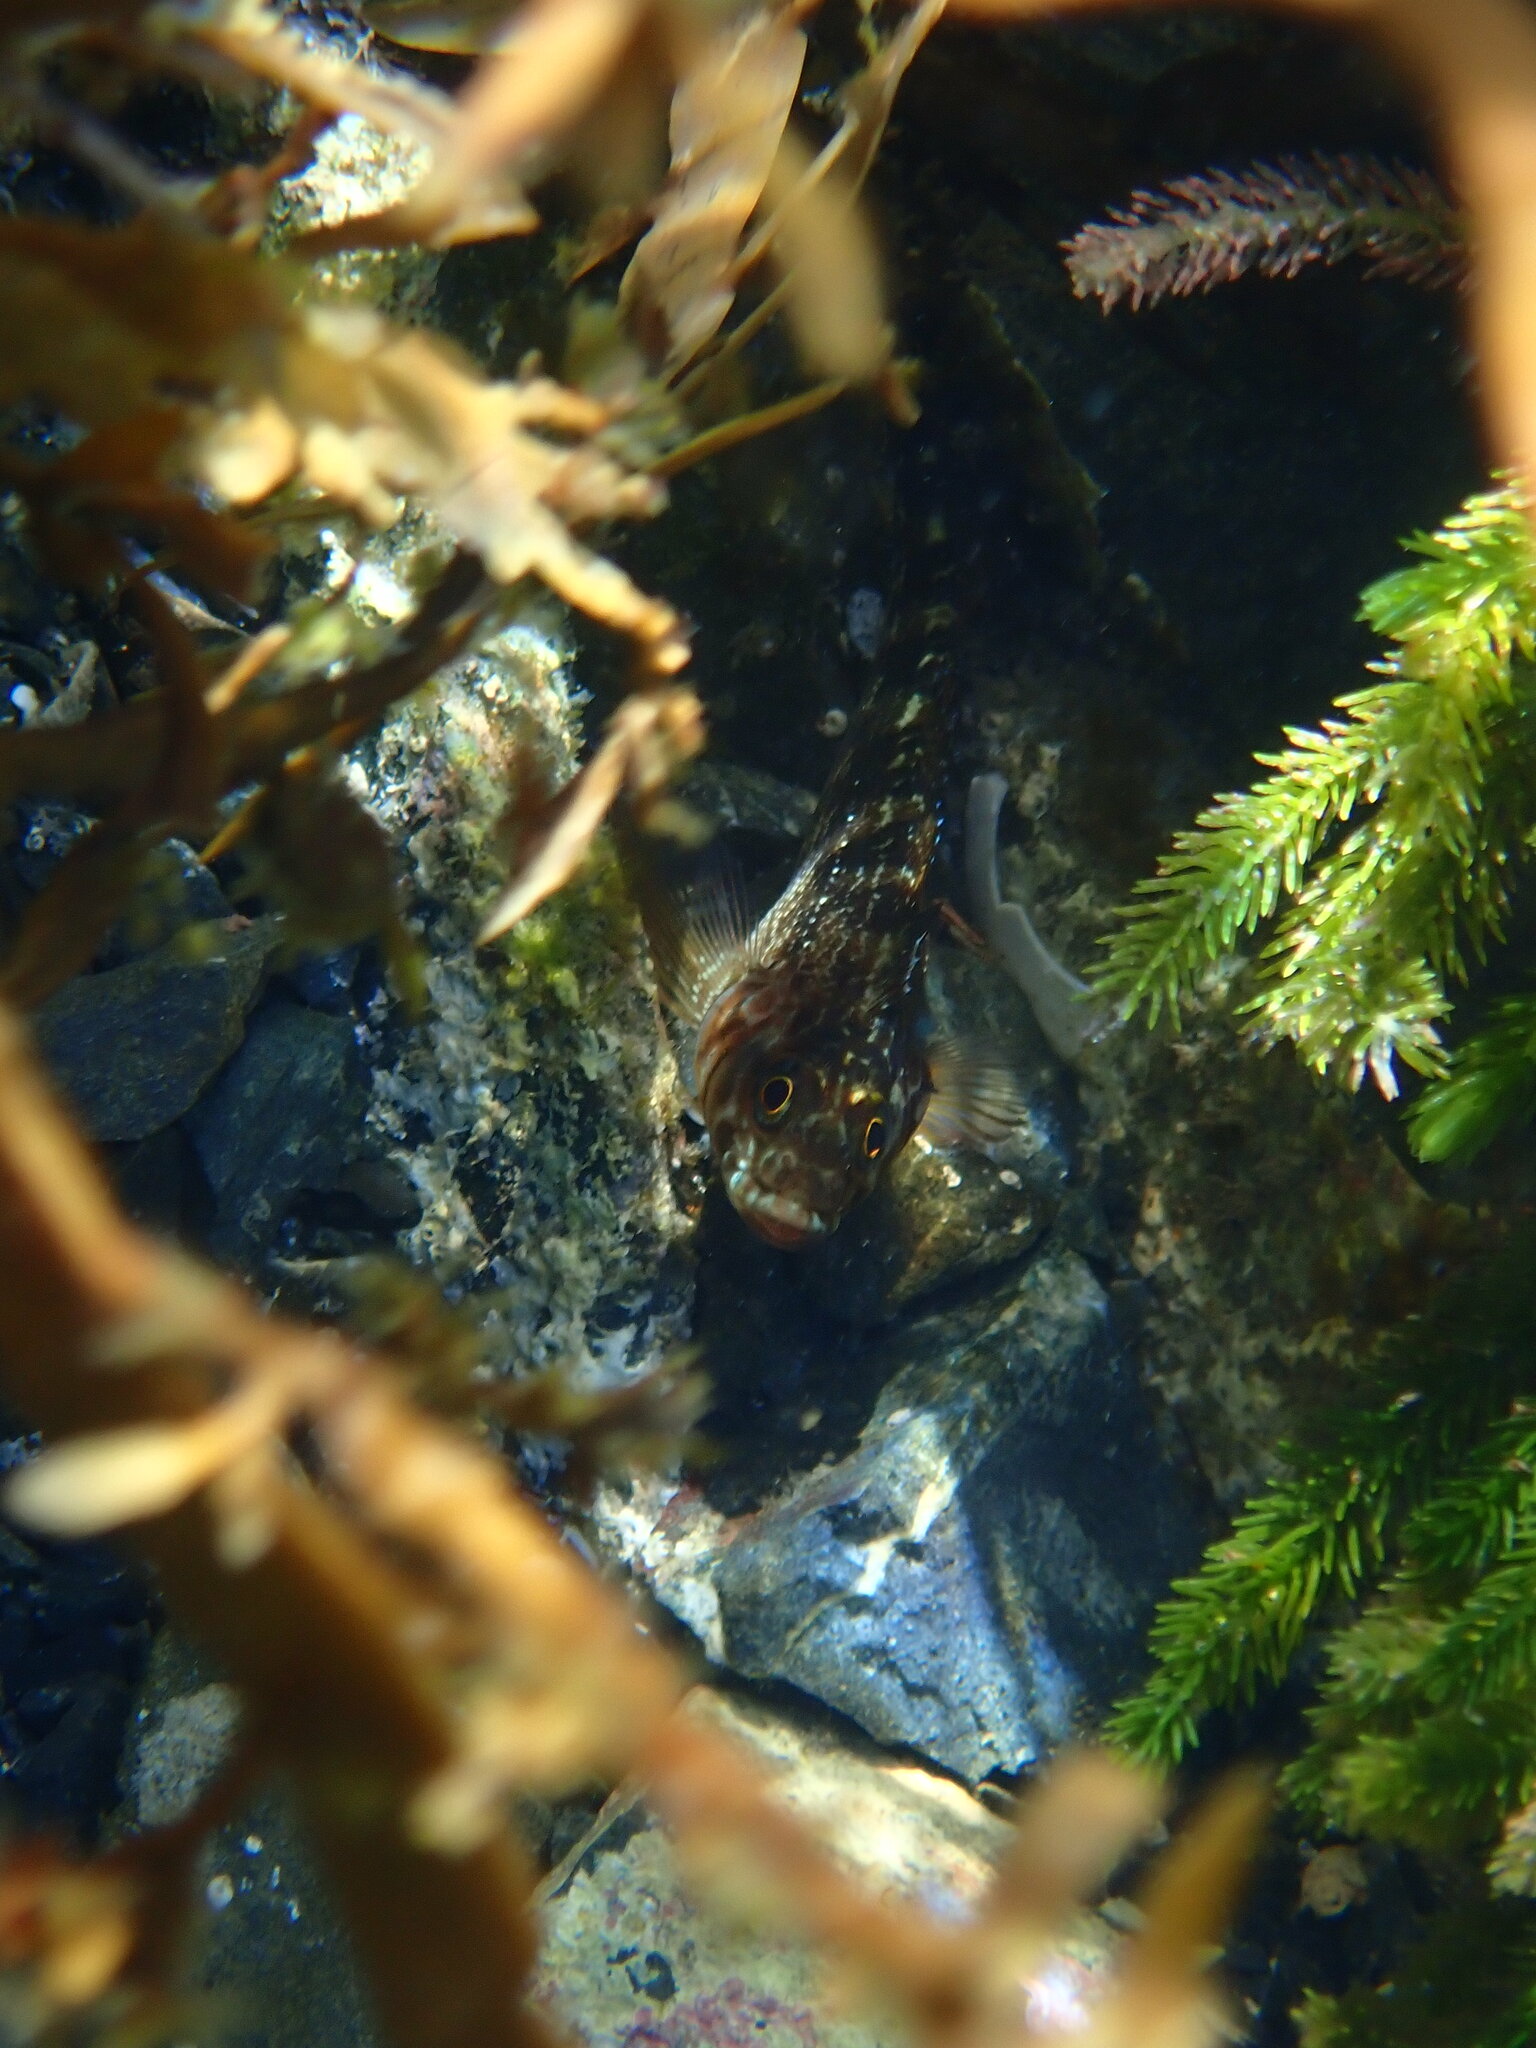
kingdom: Animalia
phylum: Chordata
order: Perciformes
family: Tripterygiidae
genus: Forsterygion
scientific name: Forsterygion varium
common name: Variable triplefin
